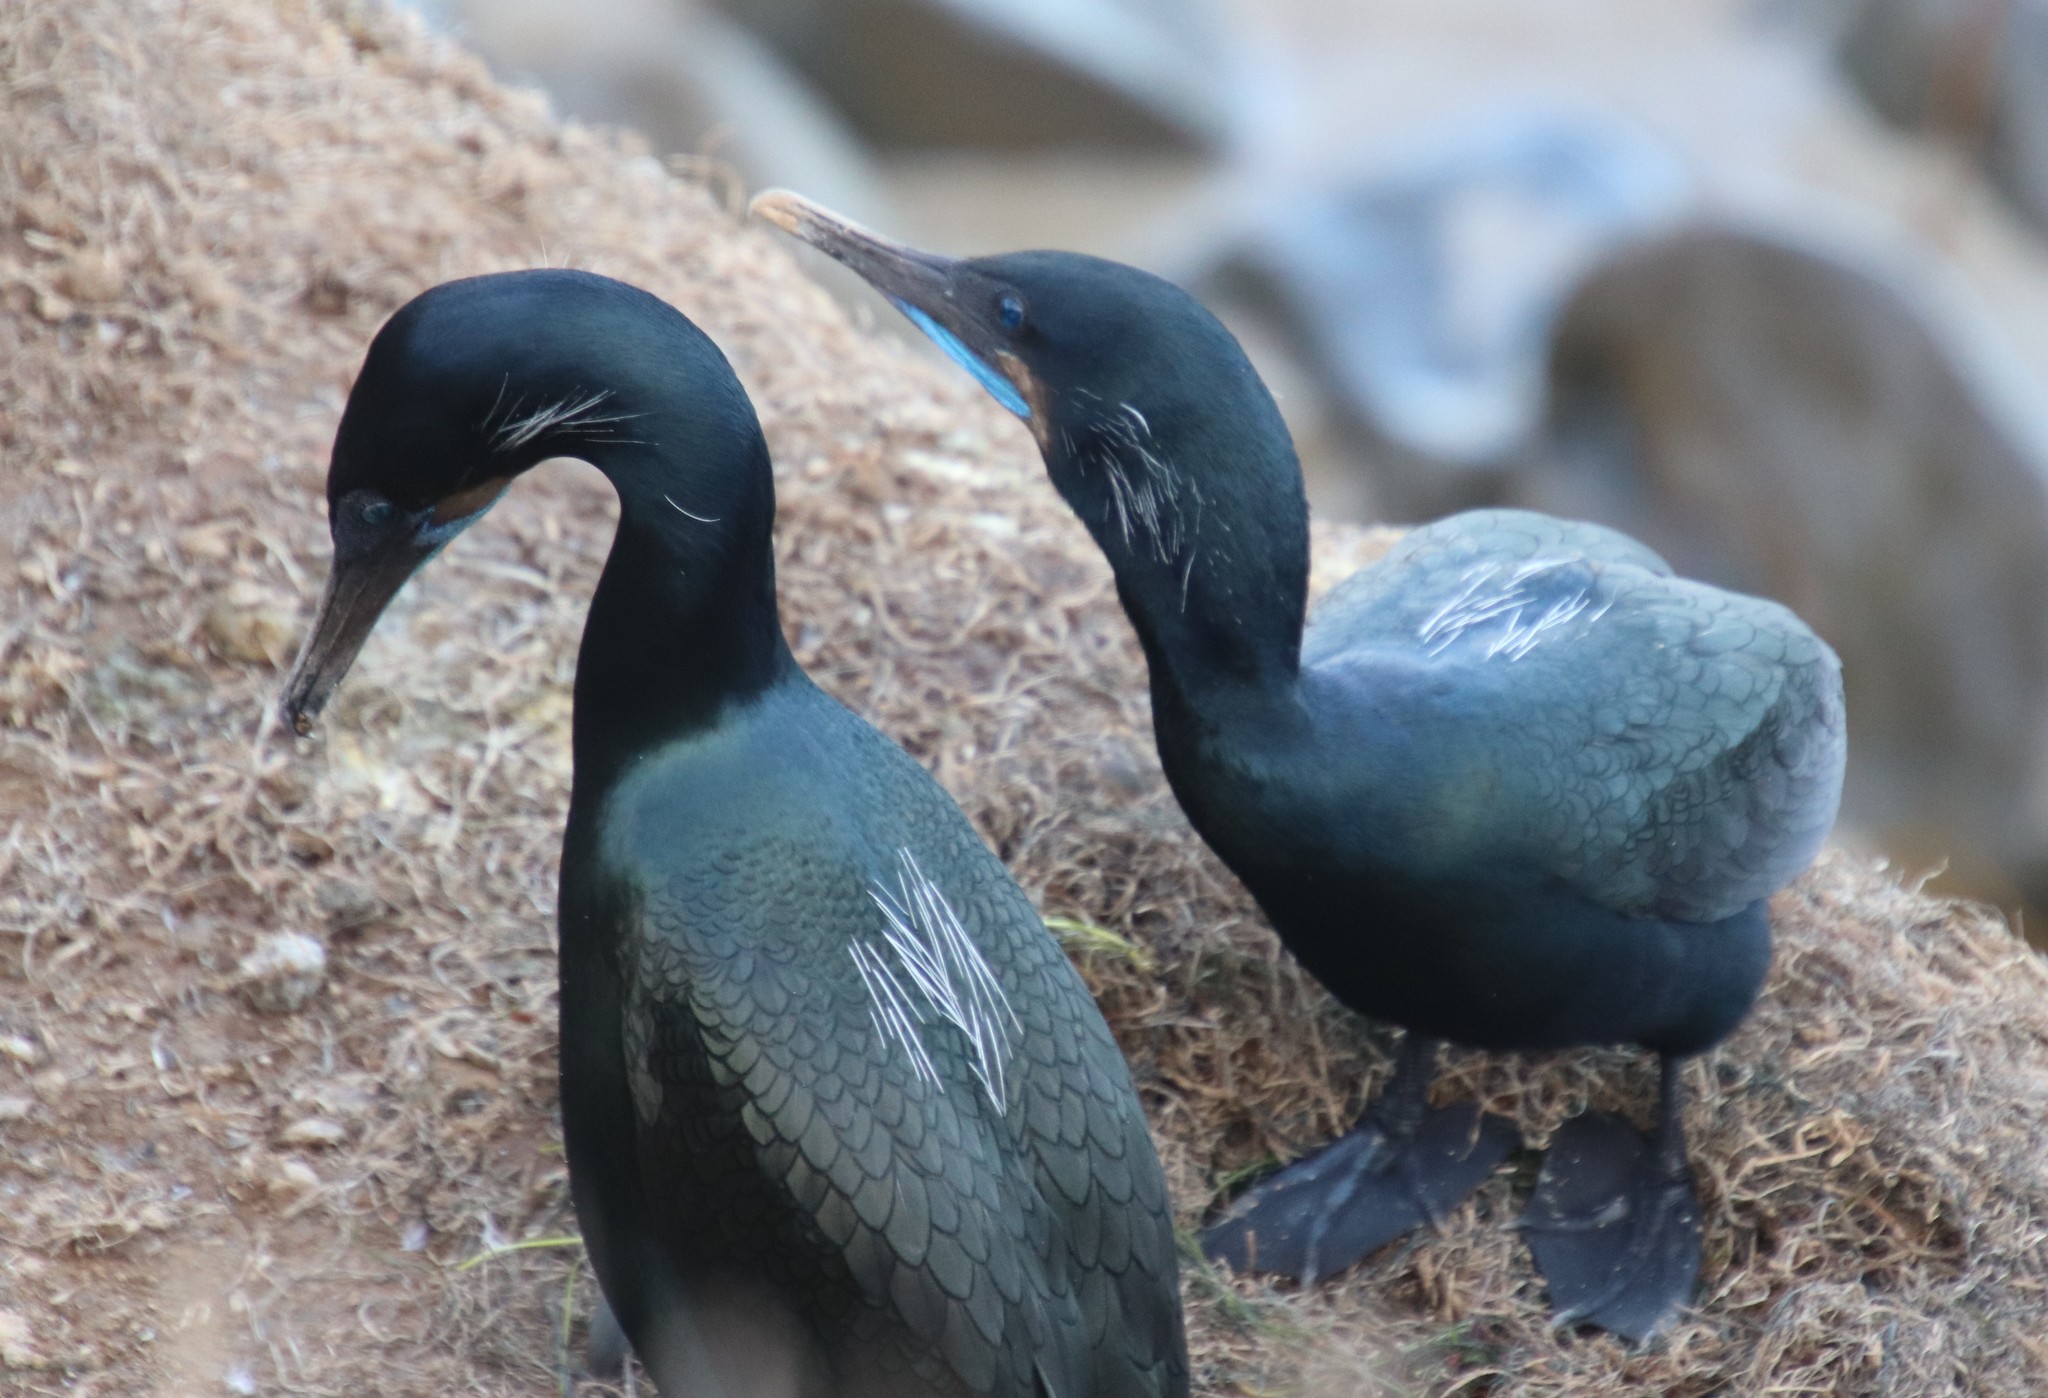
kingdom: Animalia
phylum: Chordata
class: Aves
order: Suliformes
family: Phalacrocoracidae
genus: Urile
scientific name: Urile penicillatus
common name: Brandt's cormorant
